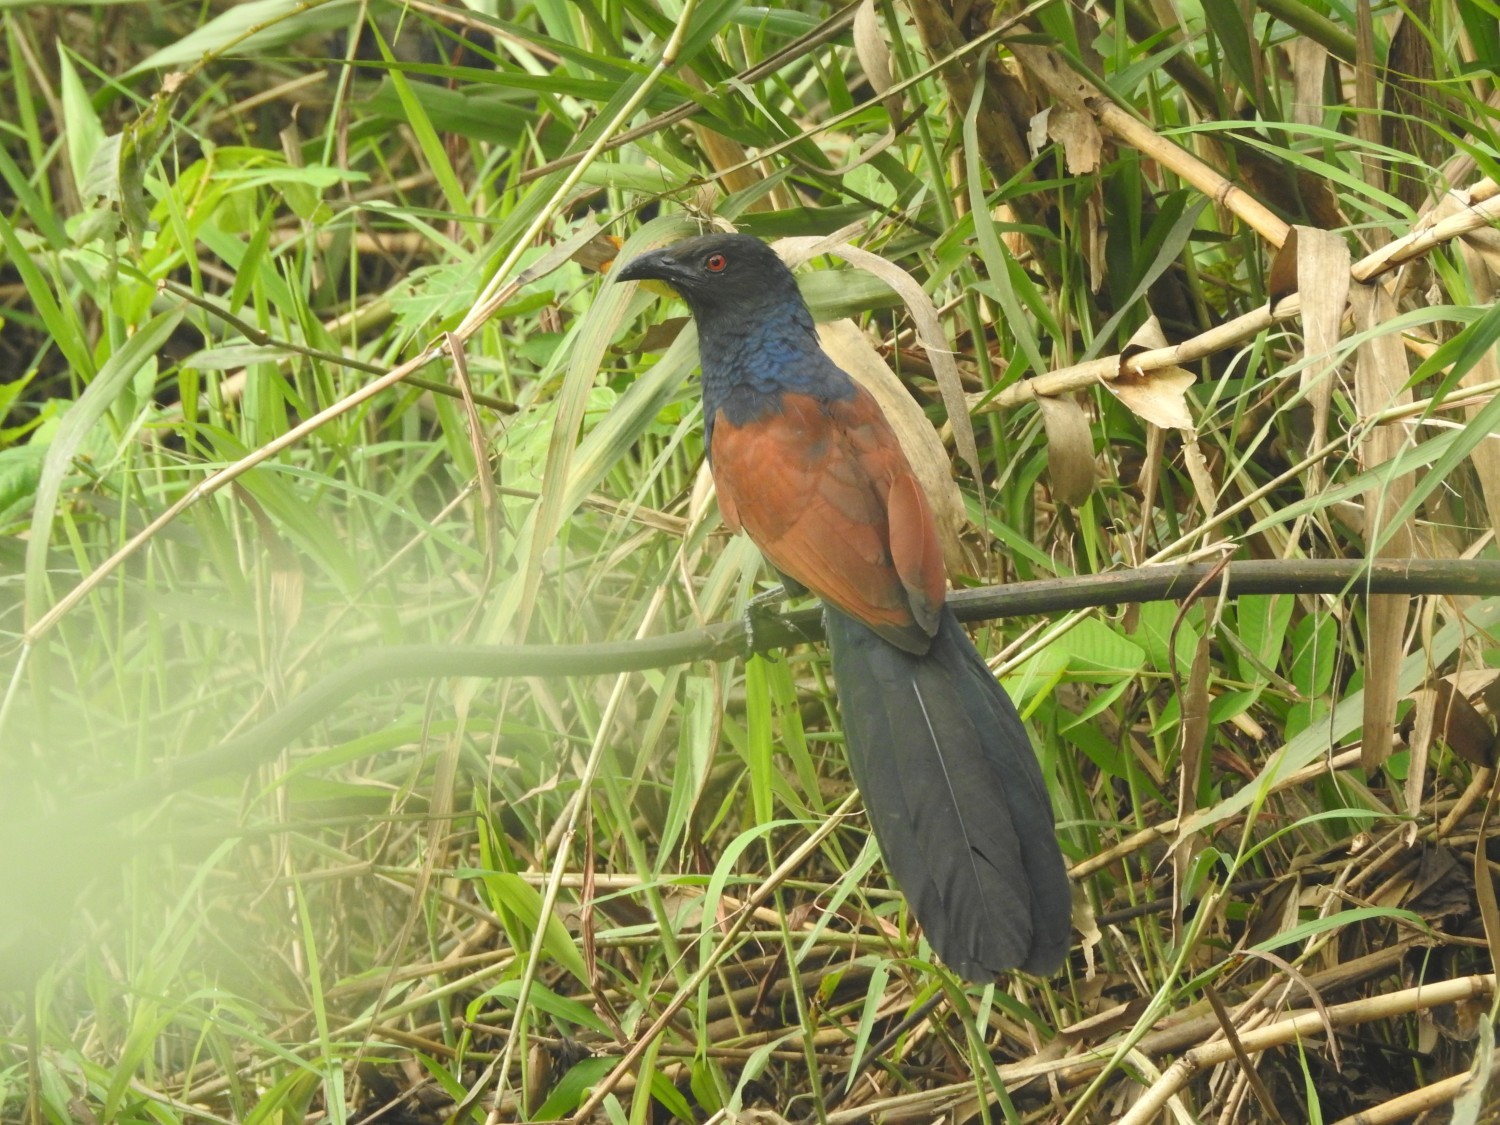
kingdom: Animalia
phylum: Chordata
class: Aves
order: Cuculiformes
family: Cuculidae
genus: Centropus
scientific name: Centropus sinensis
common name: Greater coucal
